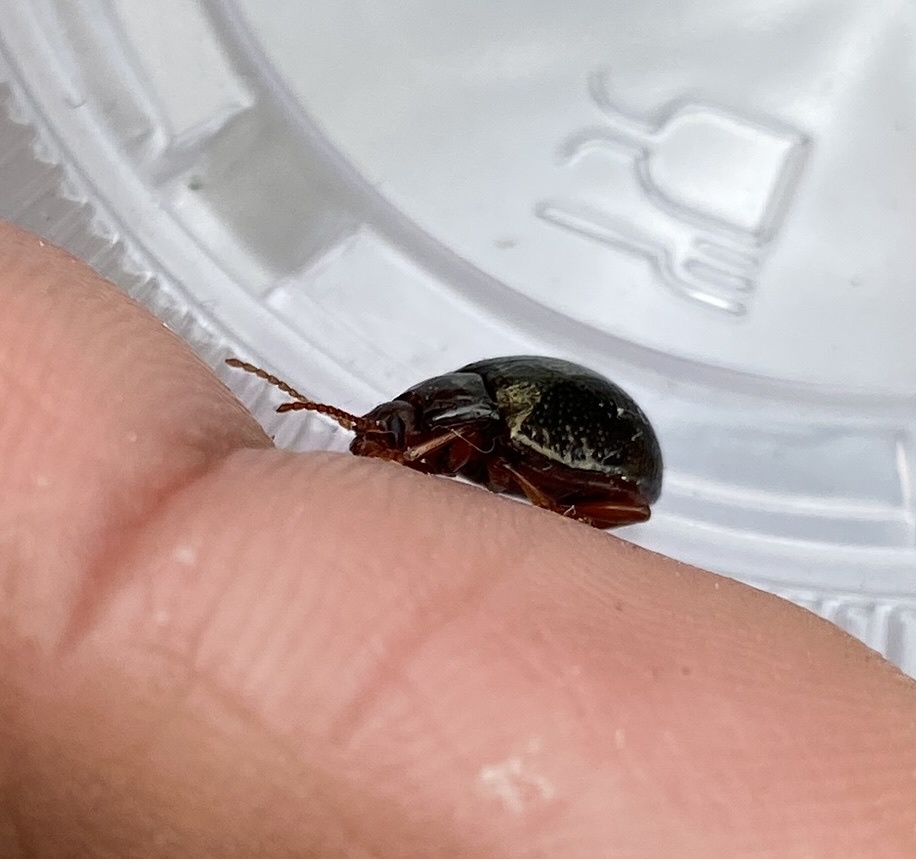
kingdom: Animalia
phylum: Arthropoda
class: Insecta
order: Coleoptera
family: Chrysomelidae
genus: Chrysolina
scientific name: Chrysolina bankii
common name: Leaf beetle
